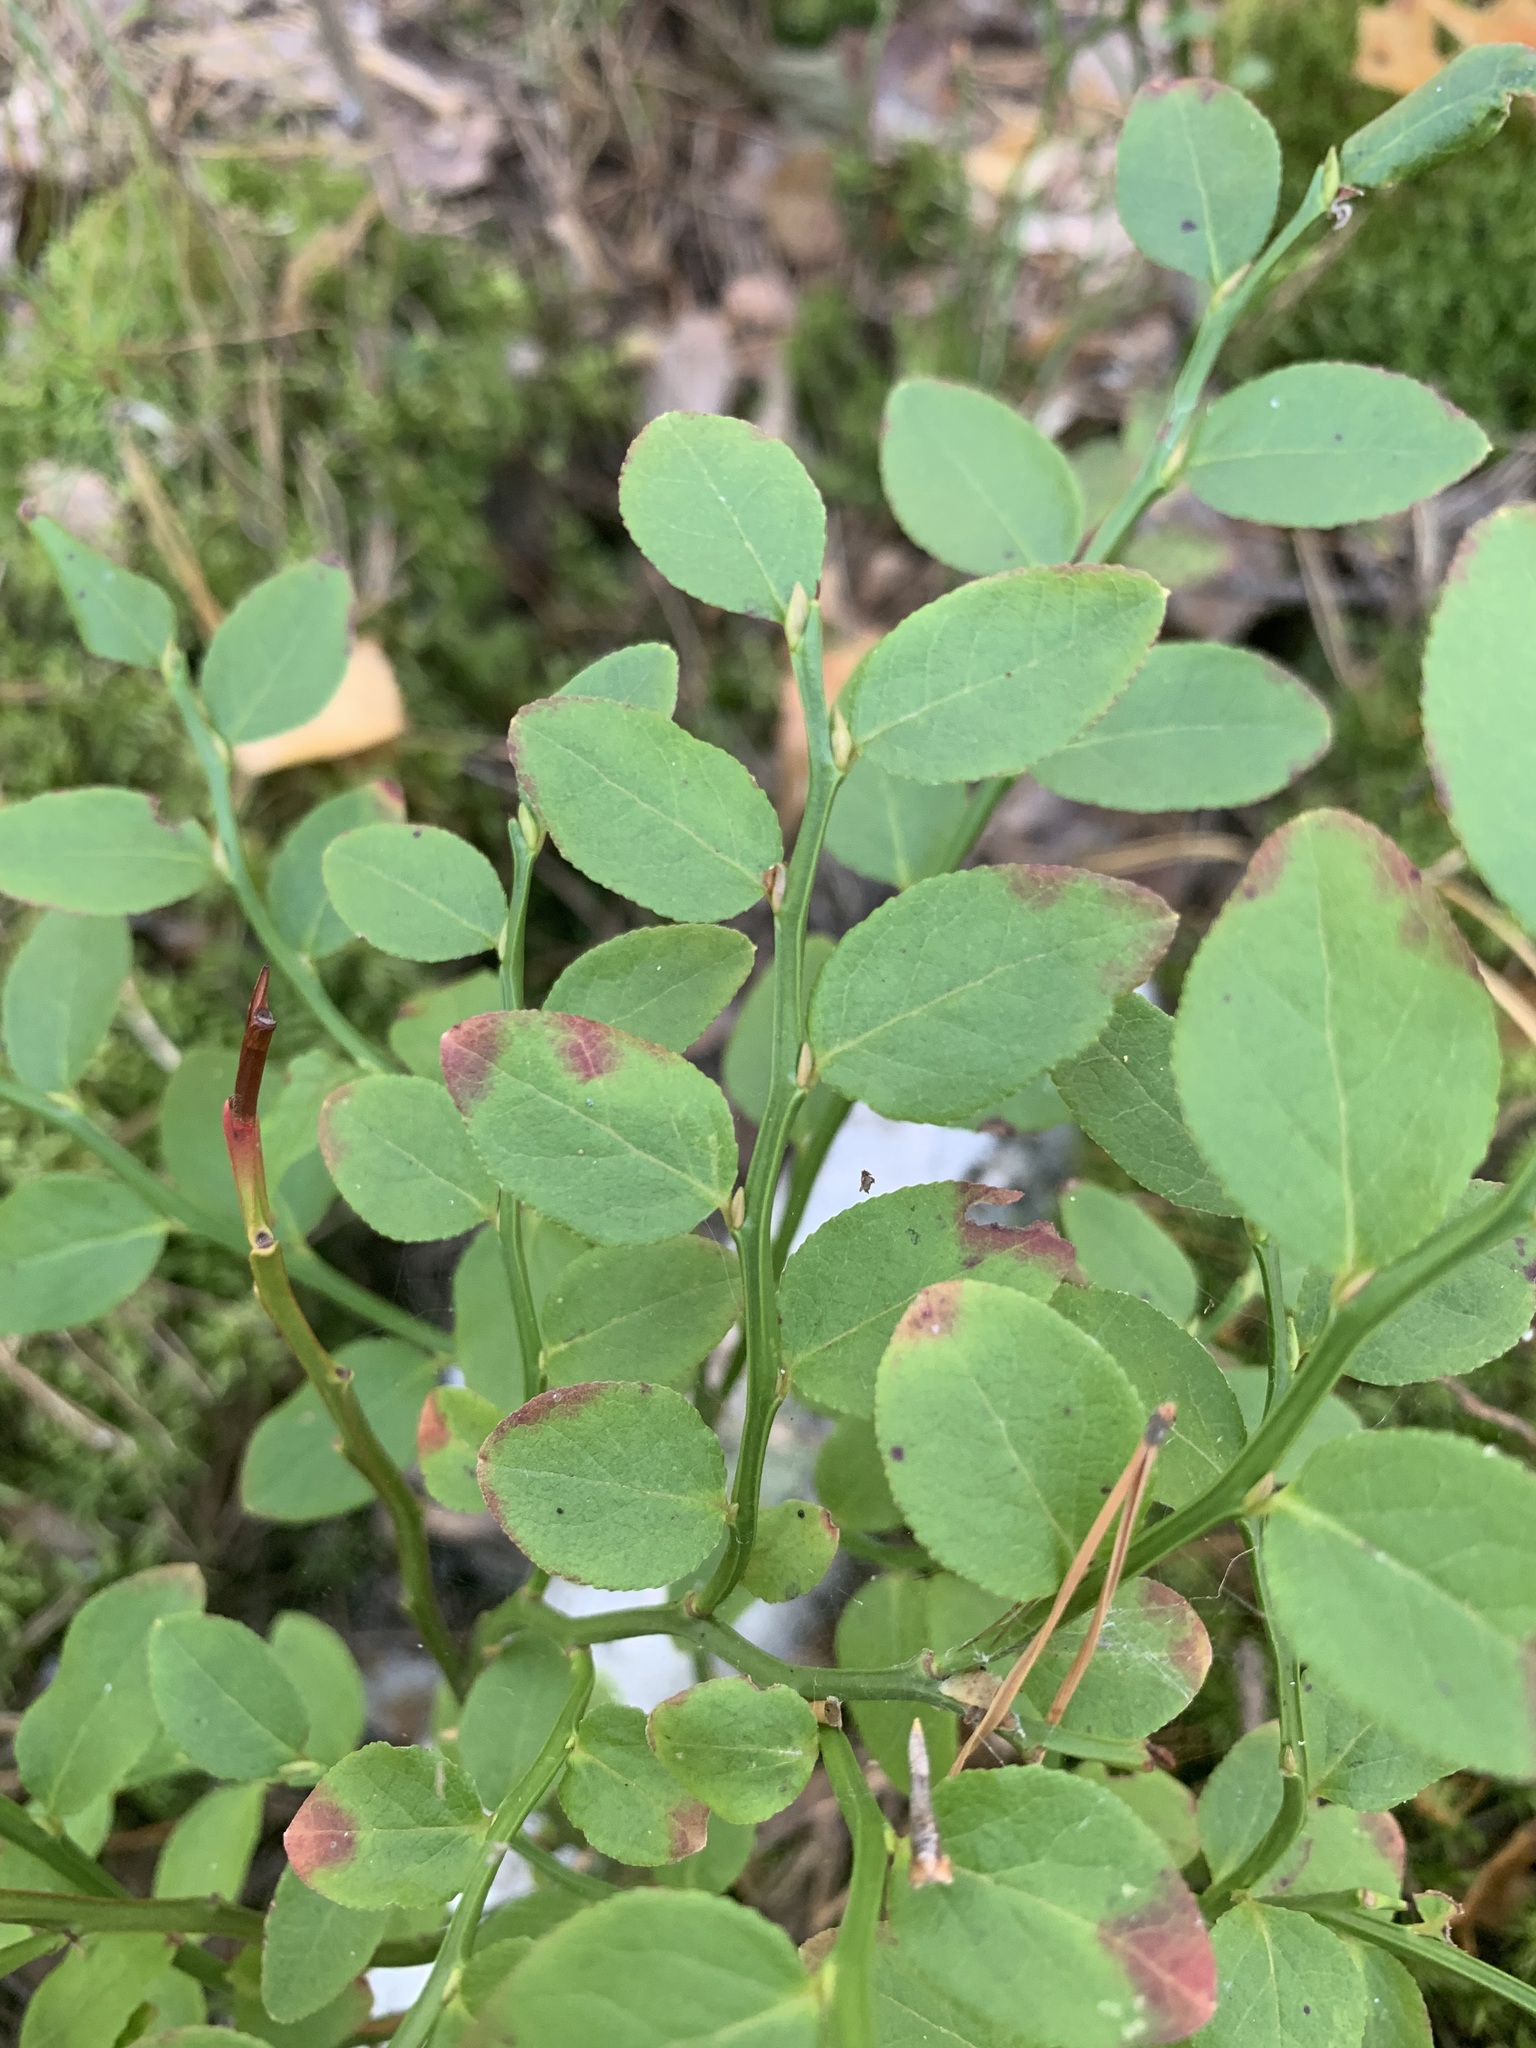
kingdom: Plantae
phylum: Tracheophyta
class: Magnoliopsida
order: Ericales
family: Ericaceae
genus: Vaccinium
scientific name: Vaccinium myrtillus
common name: Bilberry
